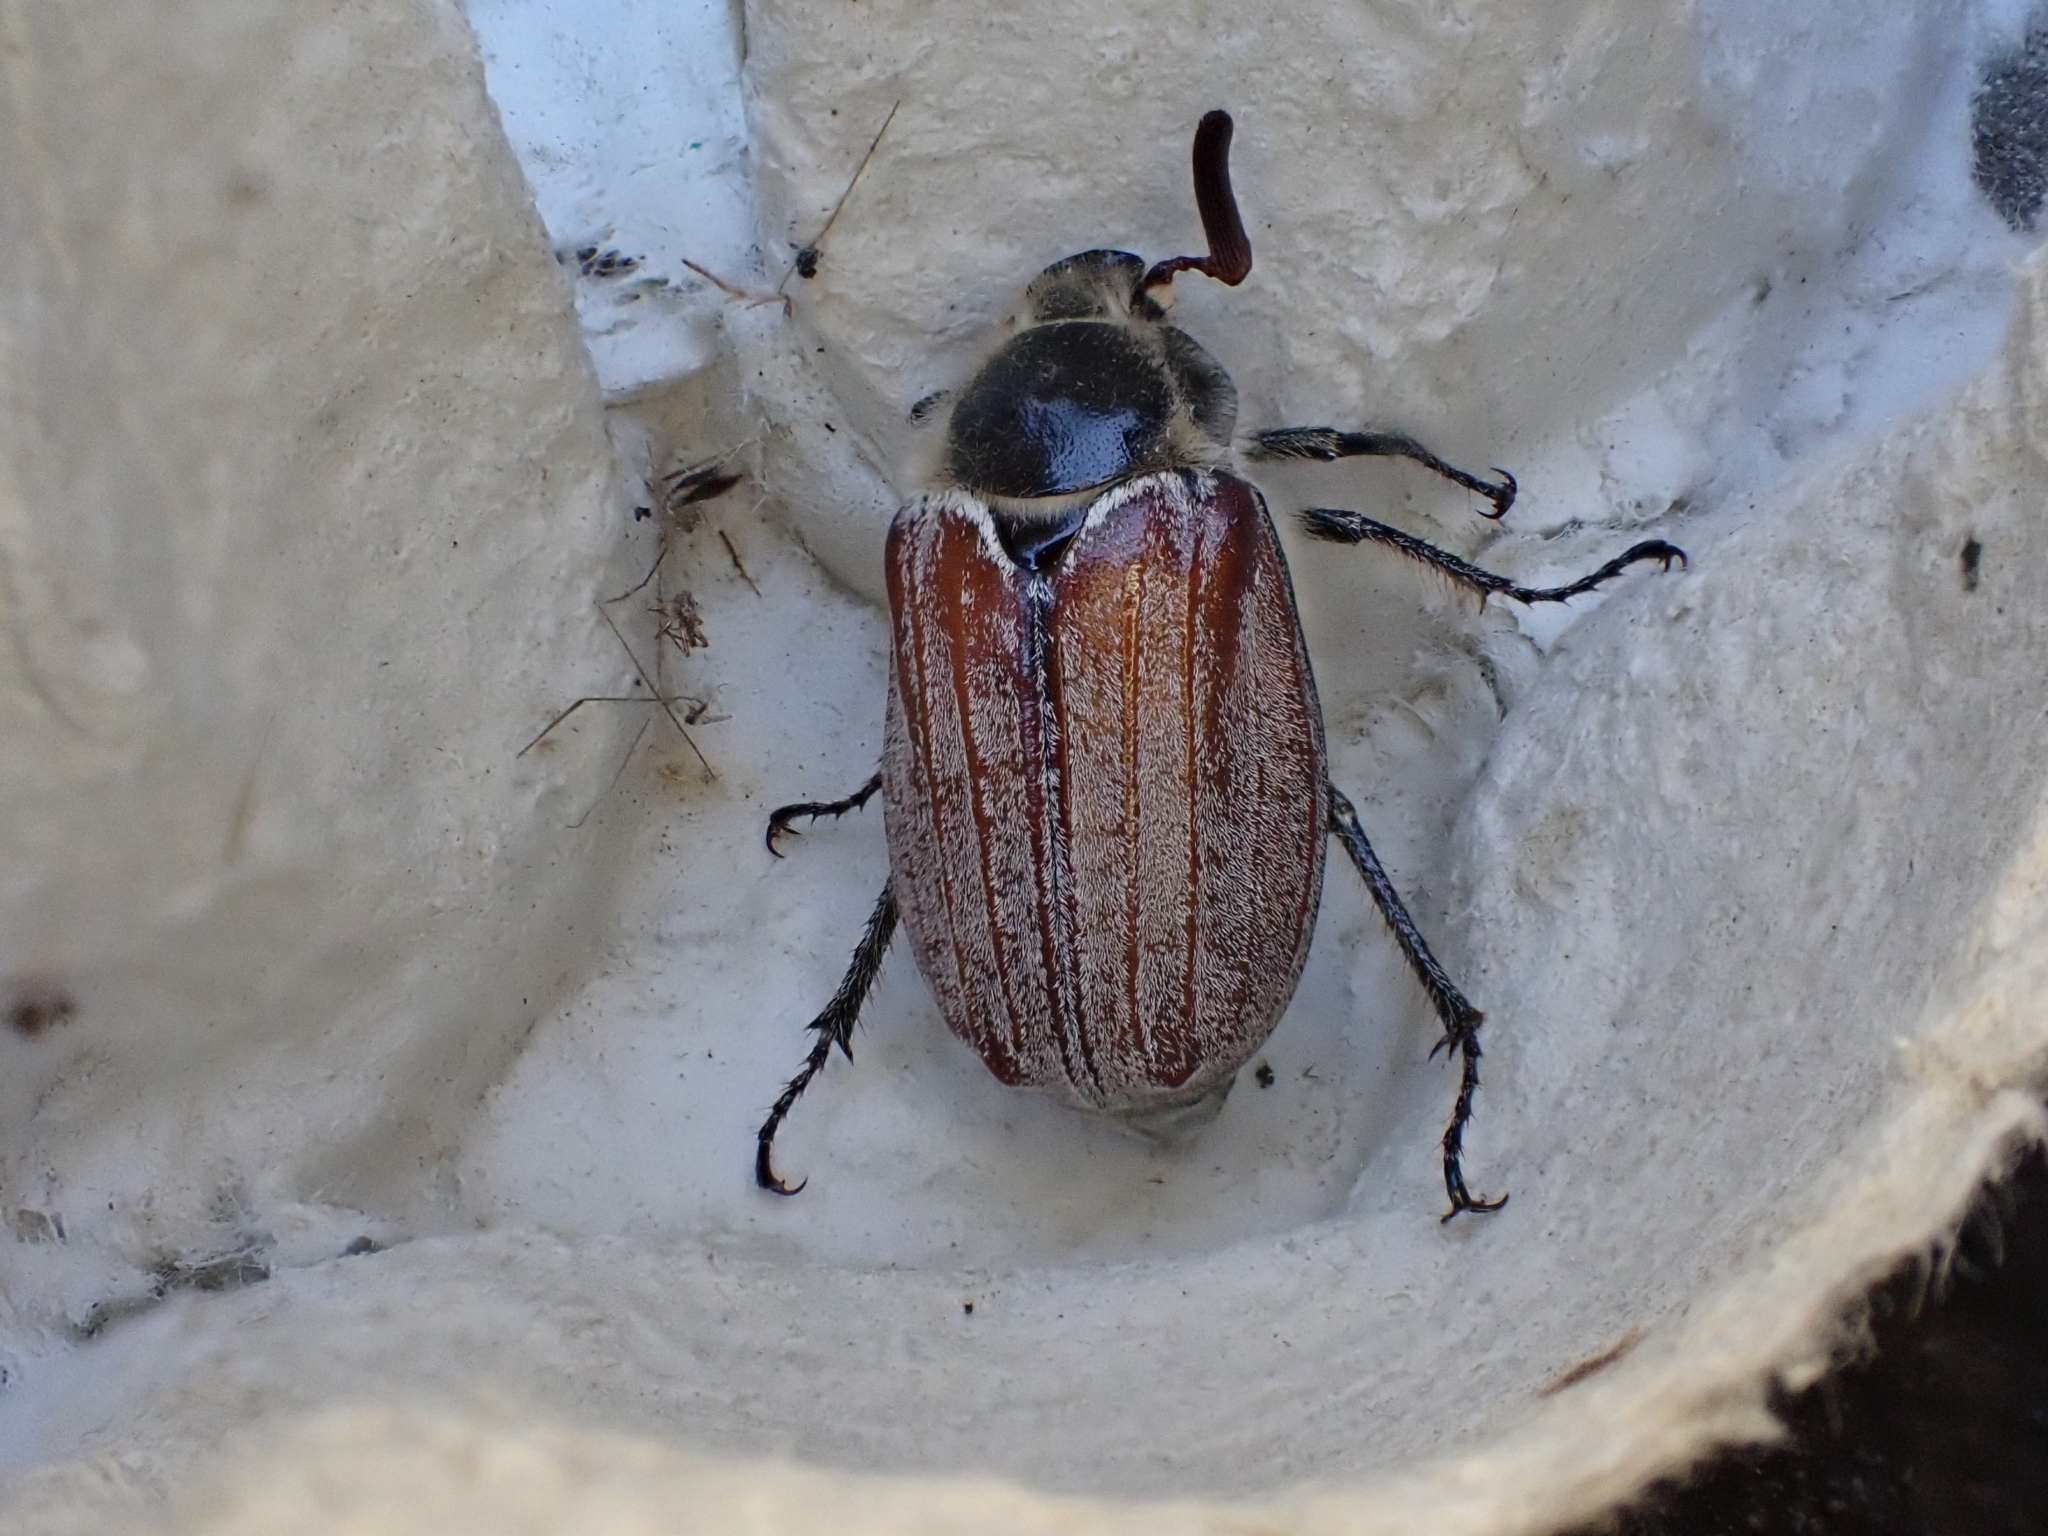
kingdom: Animalia
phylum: Arthropoda
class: Insecta
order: Coleoptera
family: Scarabaeidae
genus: Melolontha
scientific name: Melolontha hippocastani
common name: Chestnut cockchafer
